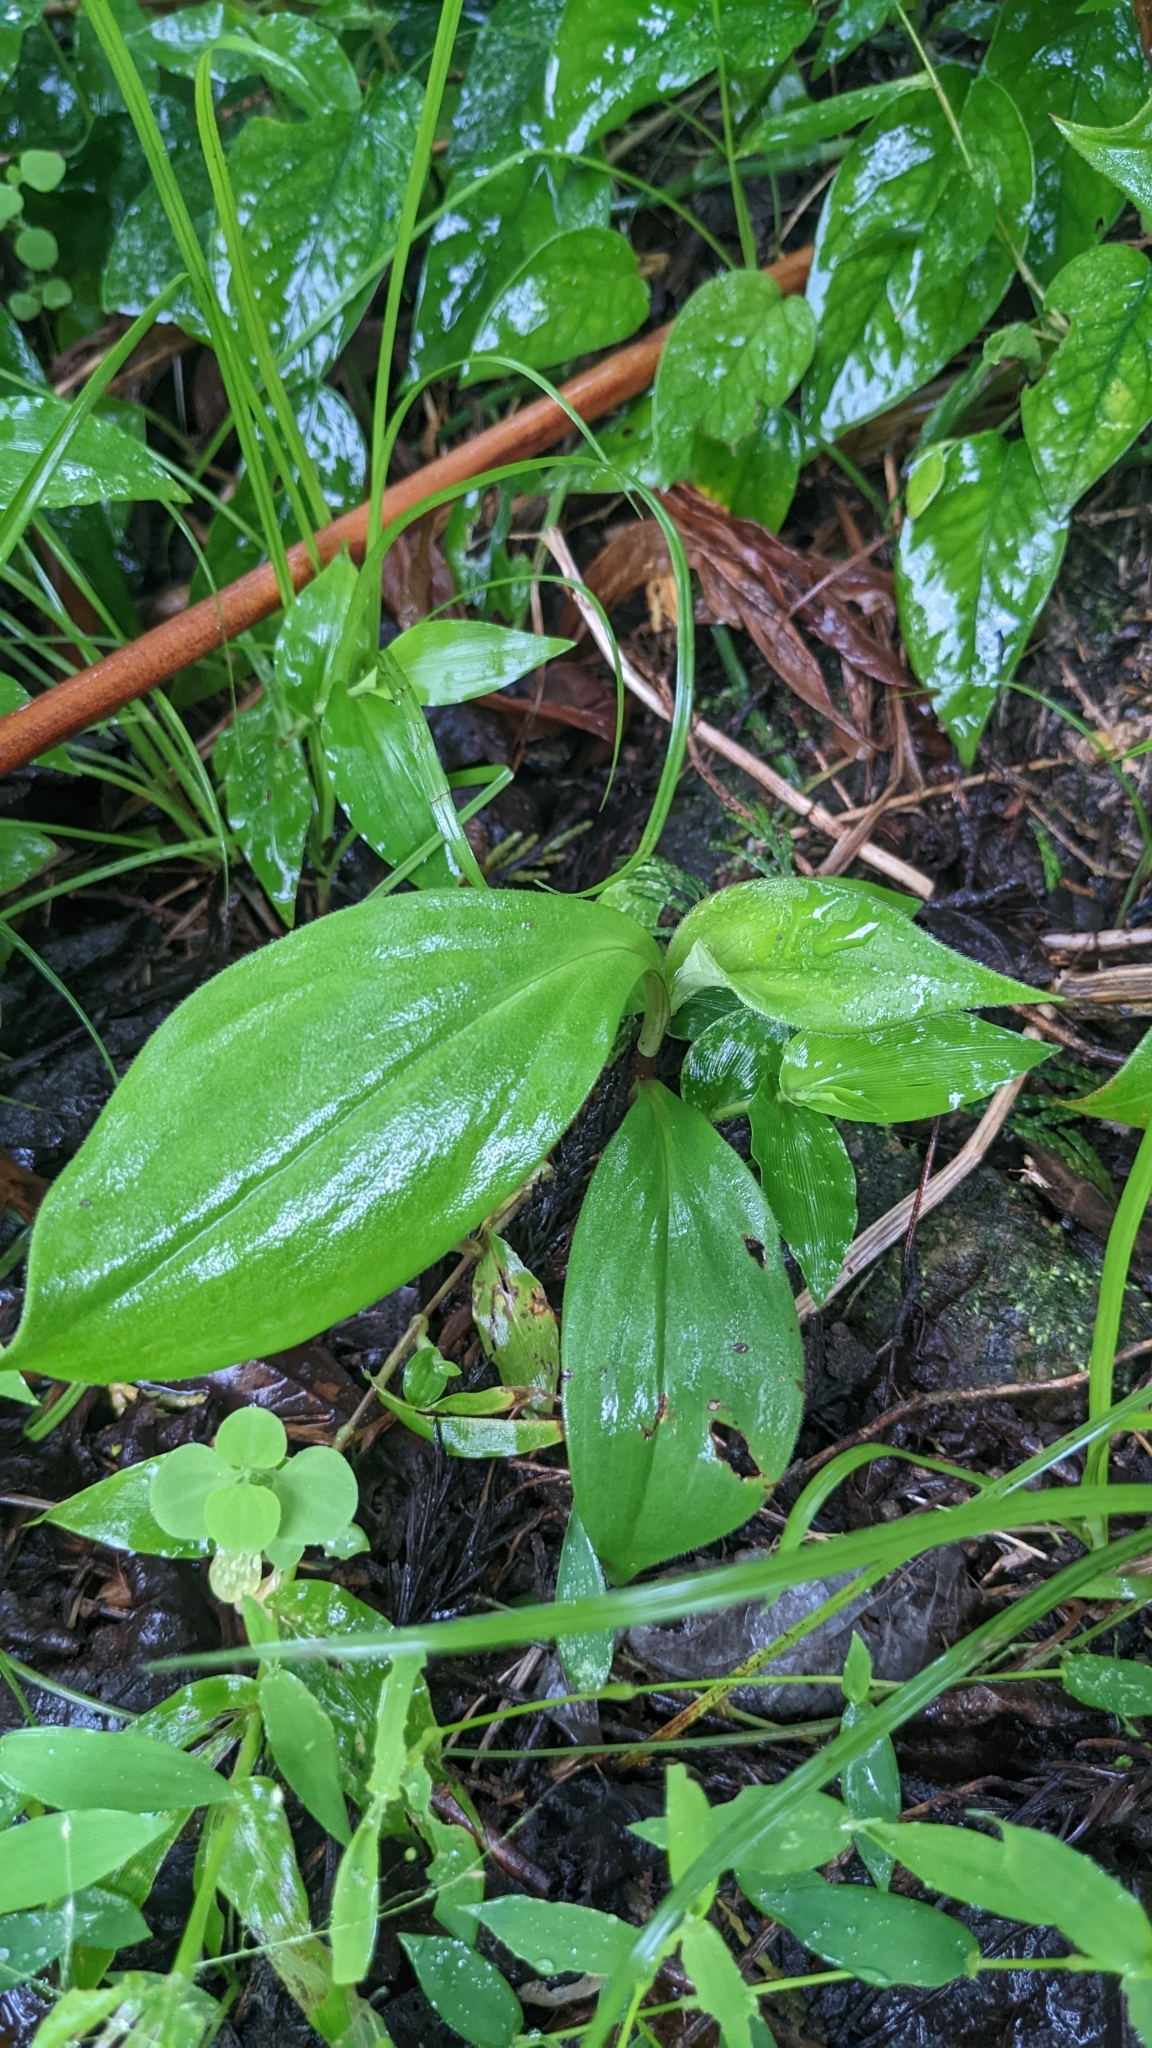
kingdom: Plantae
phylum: Tracheophyta
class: Liliopsida
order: Liliales
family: Liliaceae
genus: Tricyrtis
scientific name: Tricyrtis formosana
